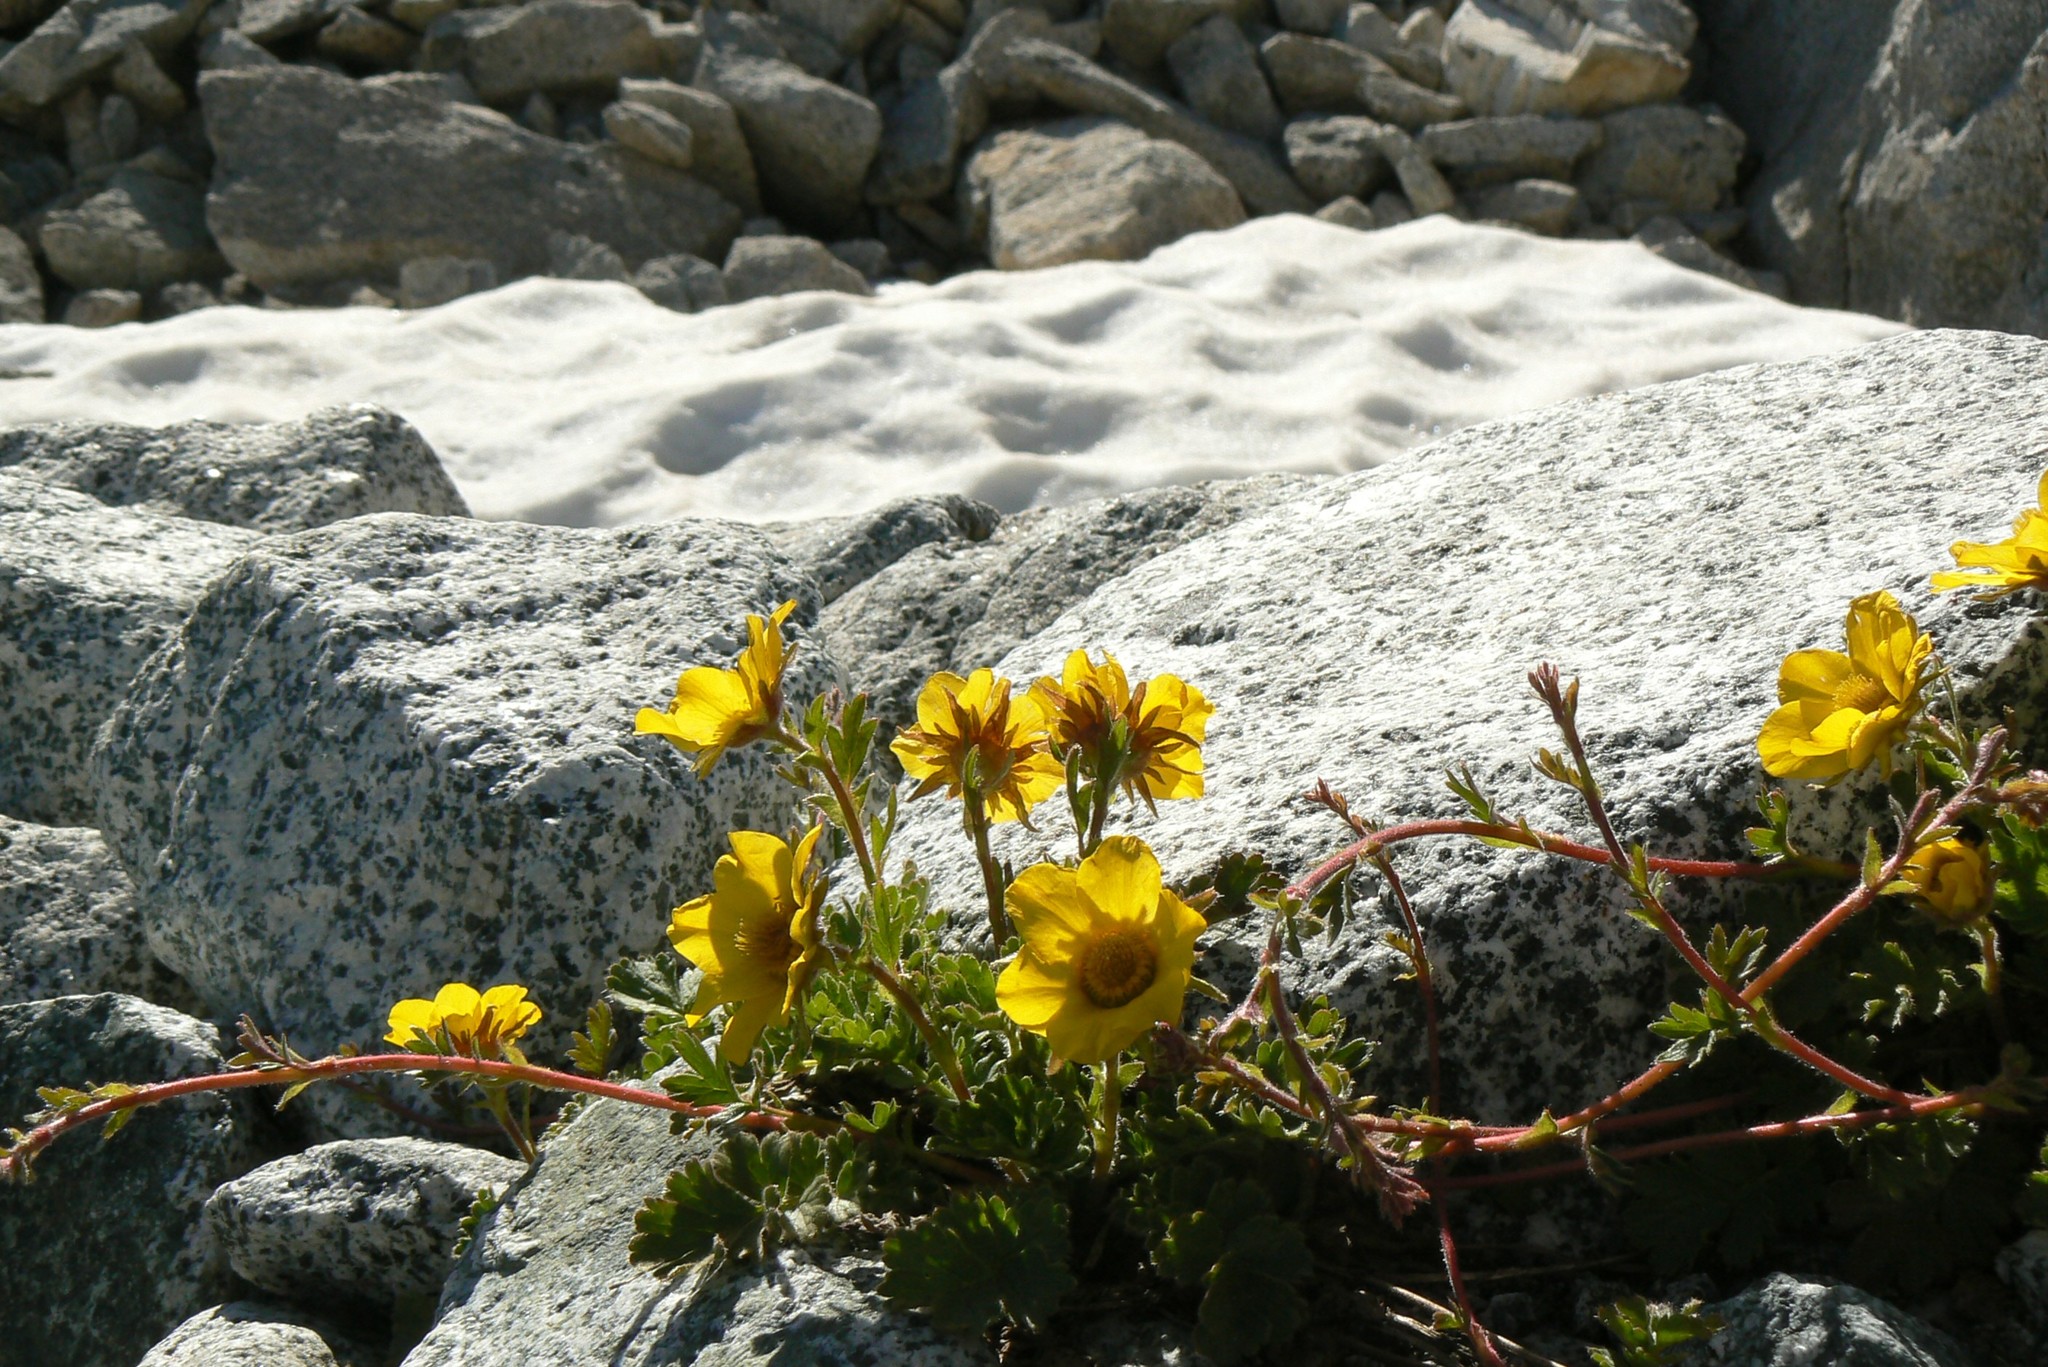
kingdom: Plantae
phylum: Tracheophyta
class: Magnoliopsida
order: Rosales
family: Rosaceae
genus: Geum
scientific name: Geum reptans
